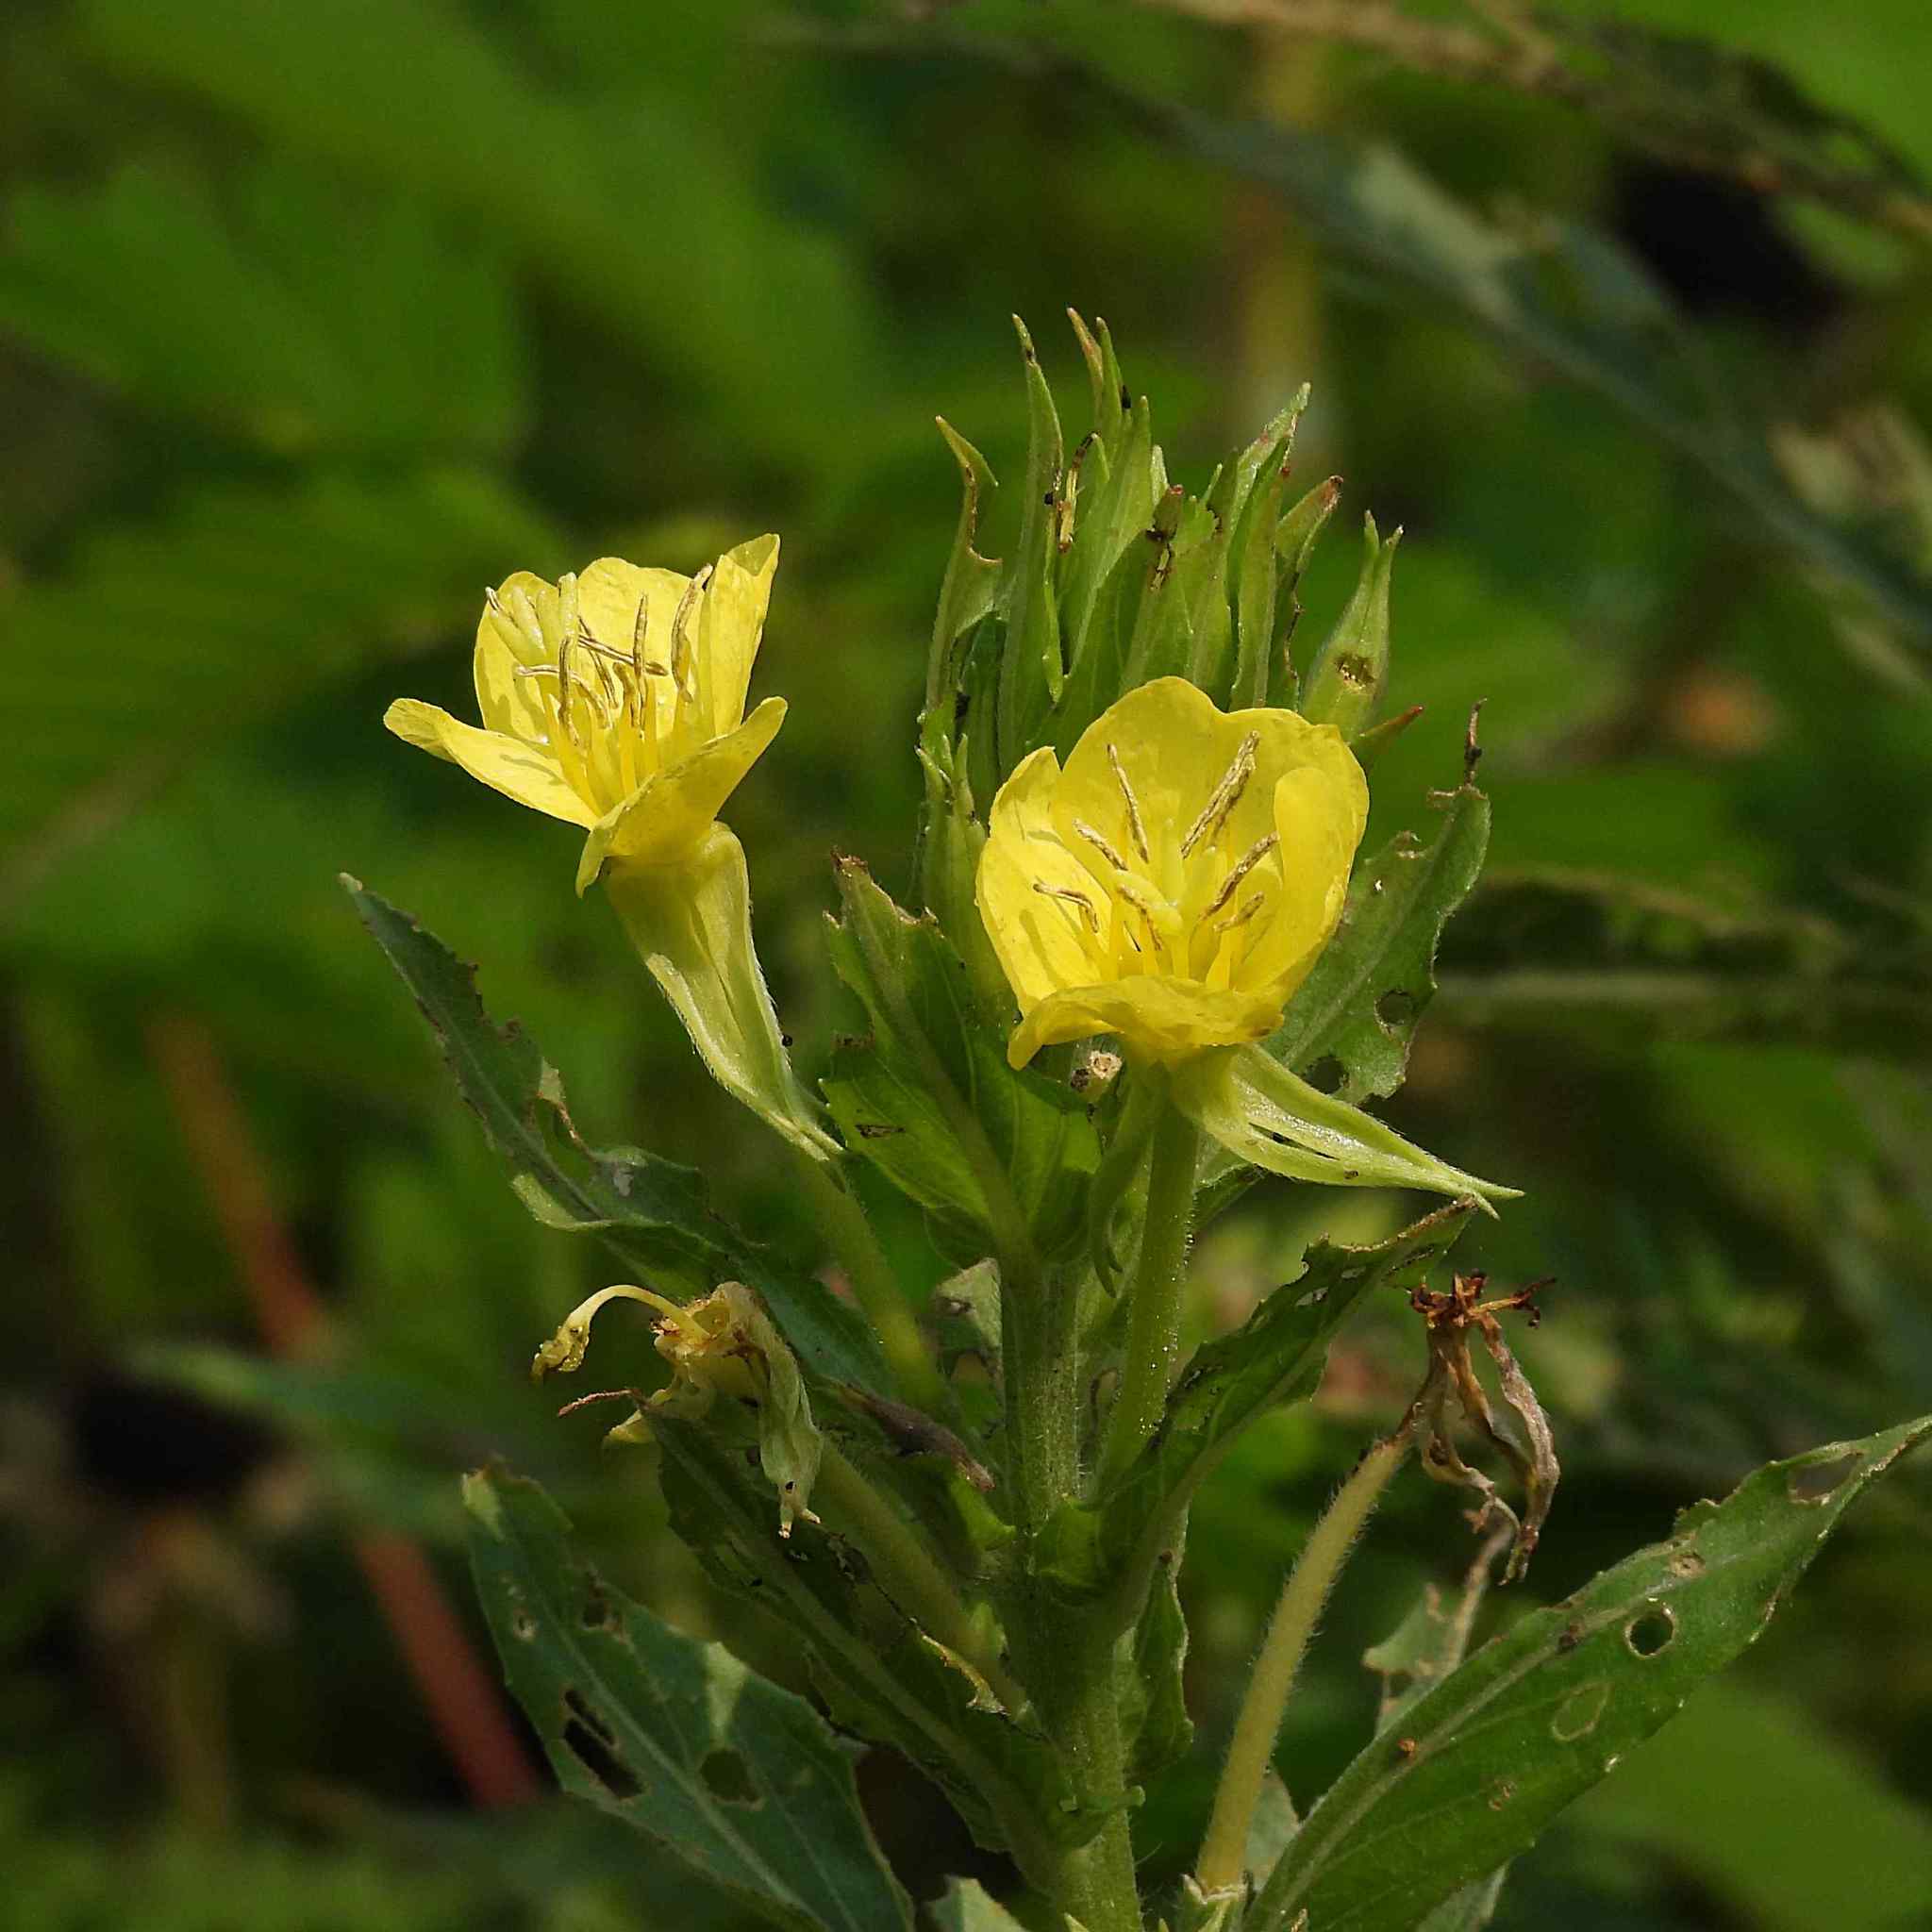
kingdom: Plantae
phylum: Tracheophyta
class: Magnoliopsida
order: Myrtales
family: Onagraceae
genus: Oenothera
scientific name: Oenothera biennis
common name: Common evening-primrose
